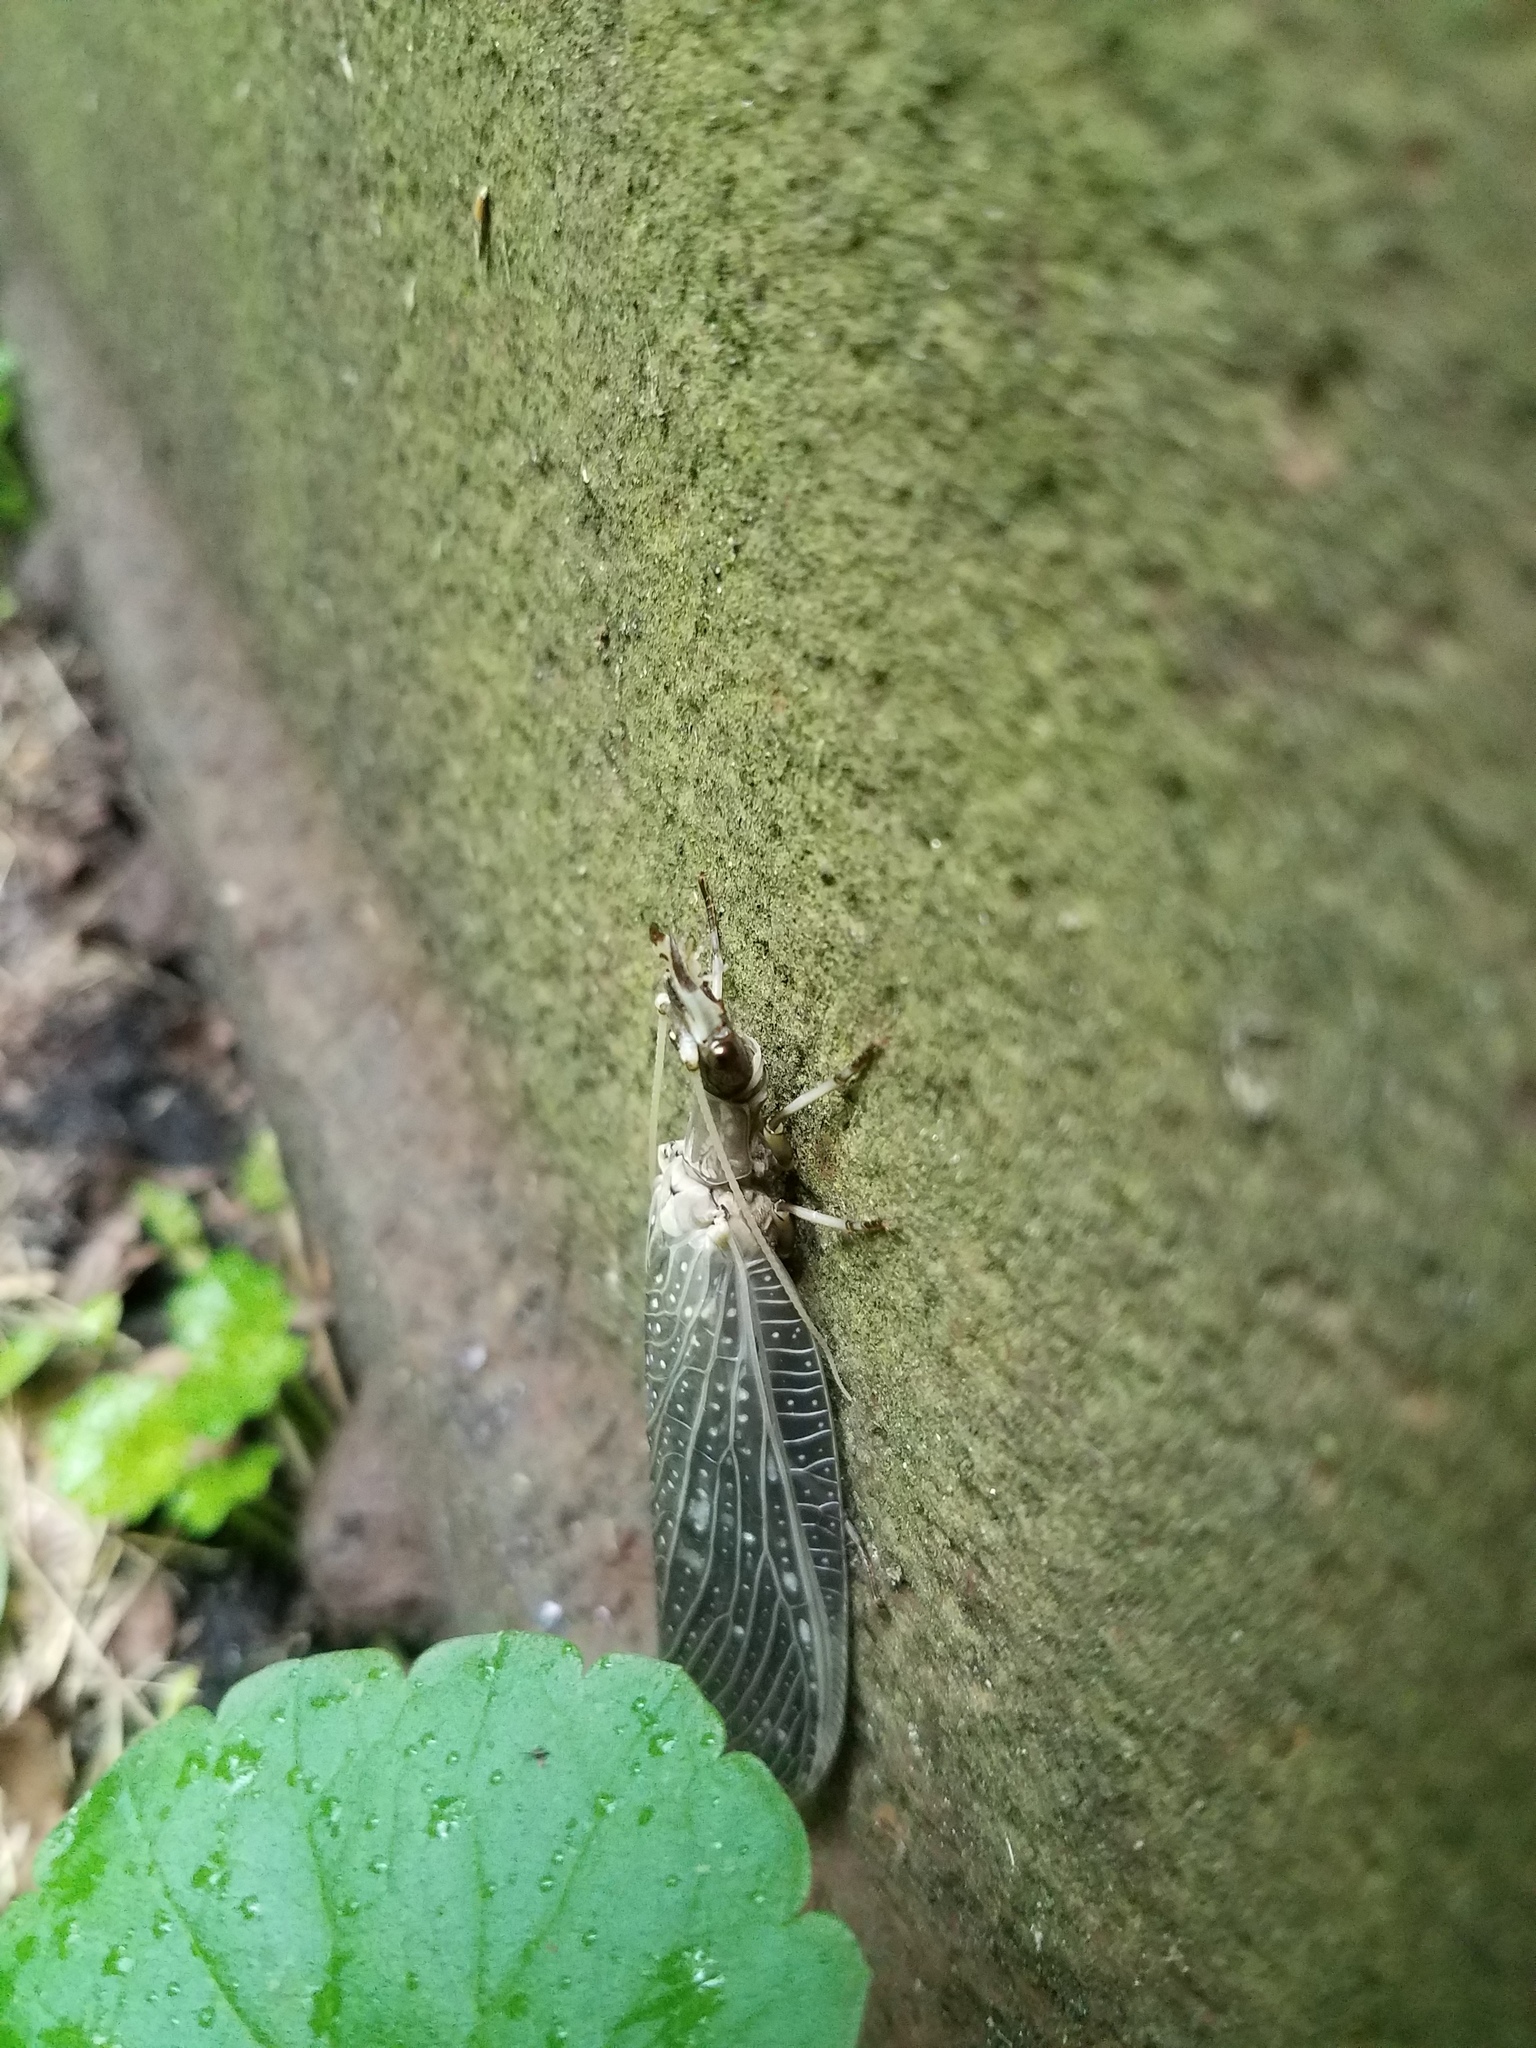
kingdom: Animalia
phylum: Arthropoda
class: Insecta
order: Megaloptera
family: Corydalidae
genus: Corydalus
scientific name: Corydalus cornutus
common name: Dobsonfly
